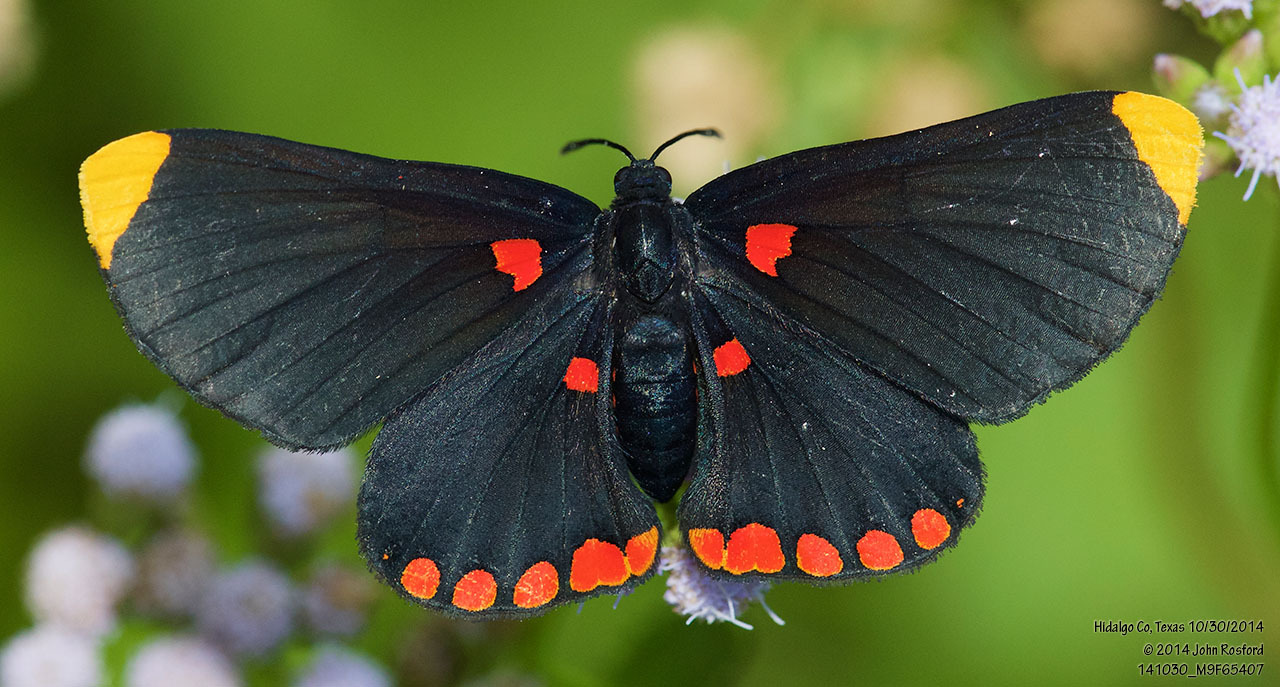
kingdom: Animalia
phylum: Arthropoda
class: Insecta
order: Lepidoptera
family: Lycaenidae
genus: Melanis
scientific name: Melanis pixe
